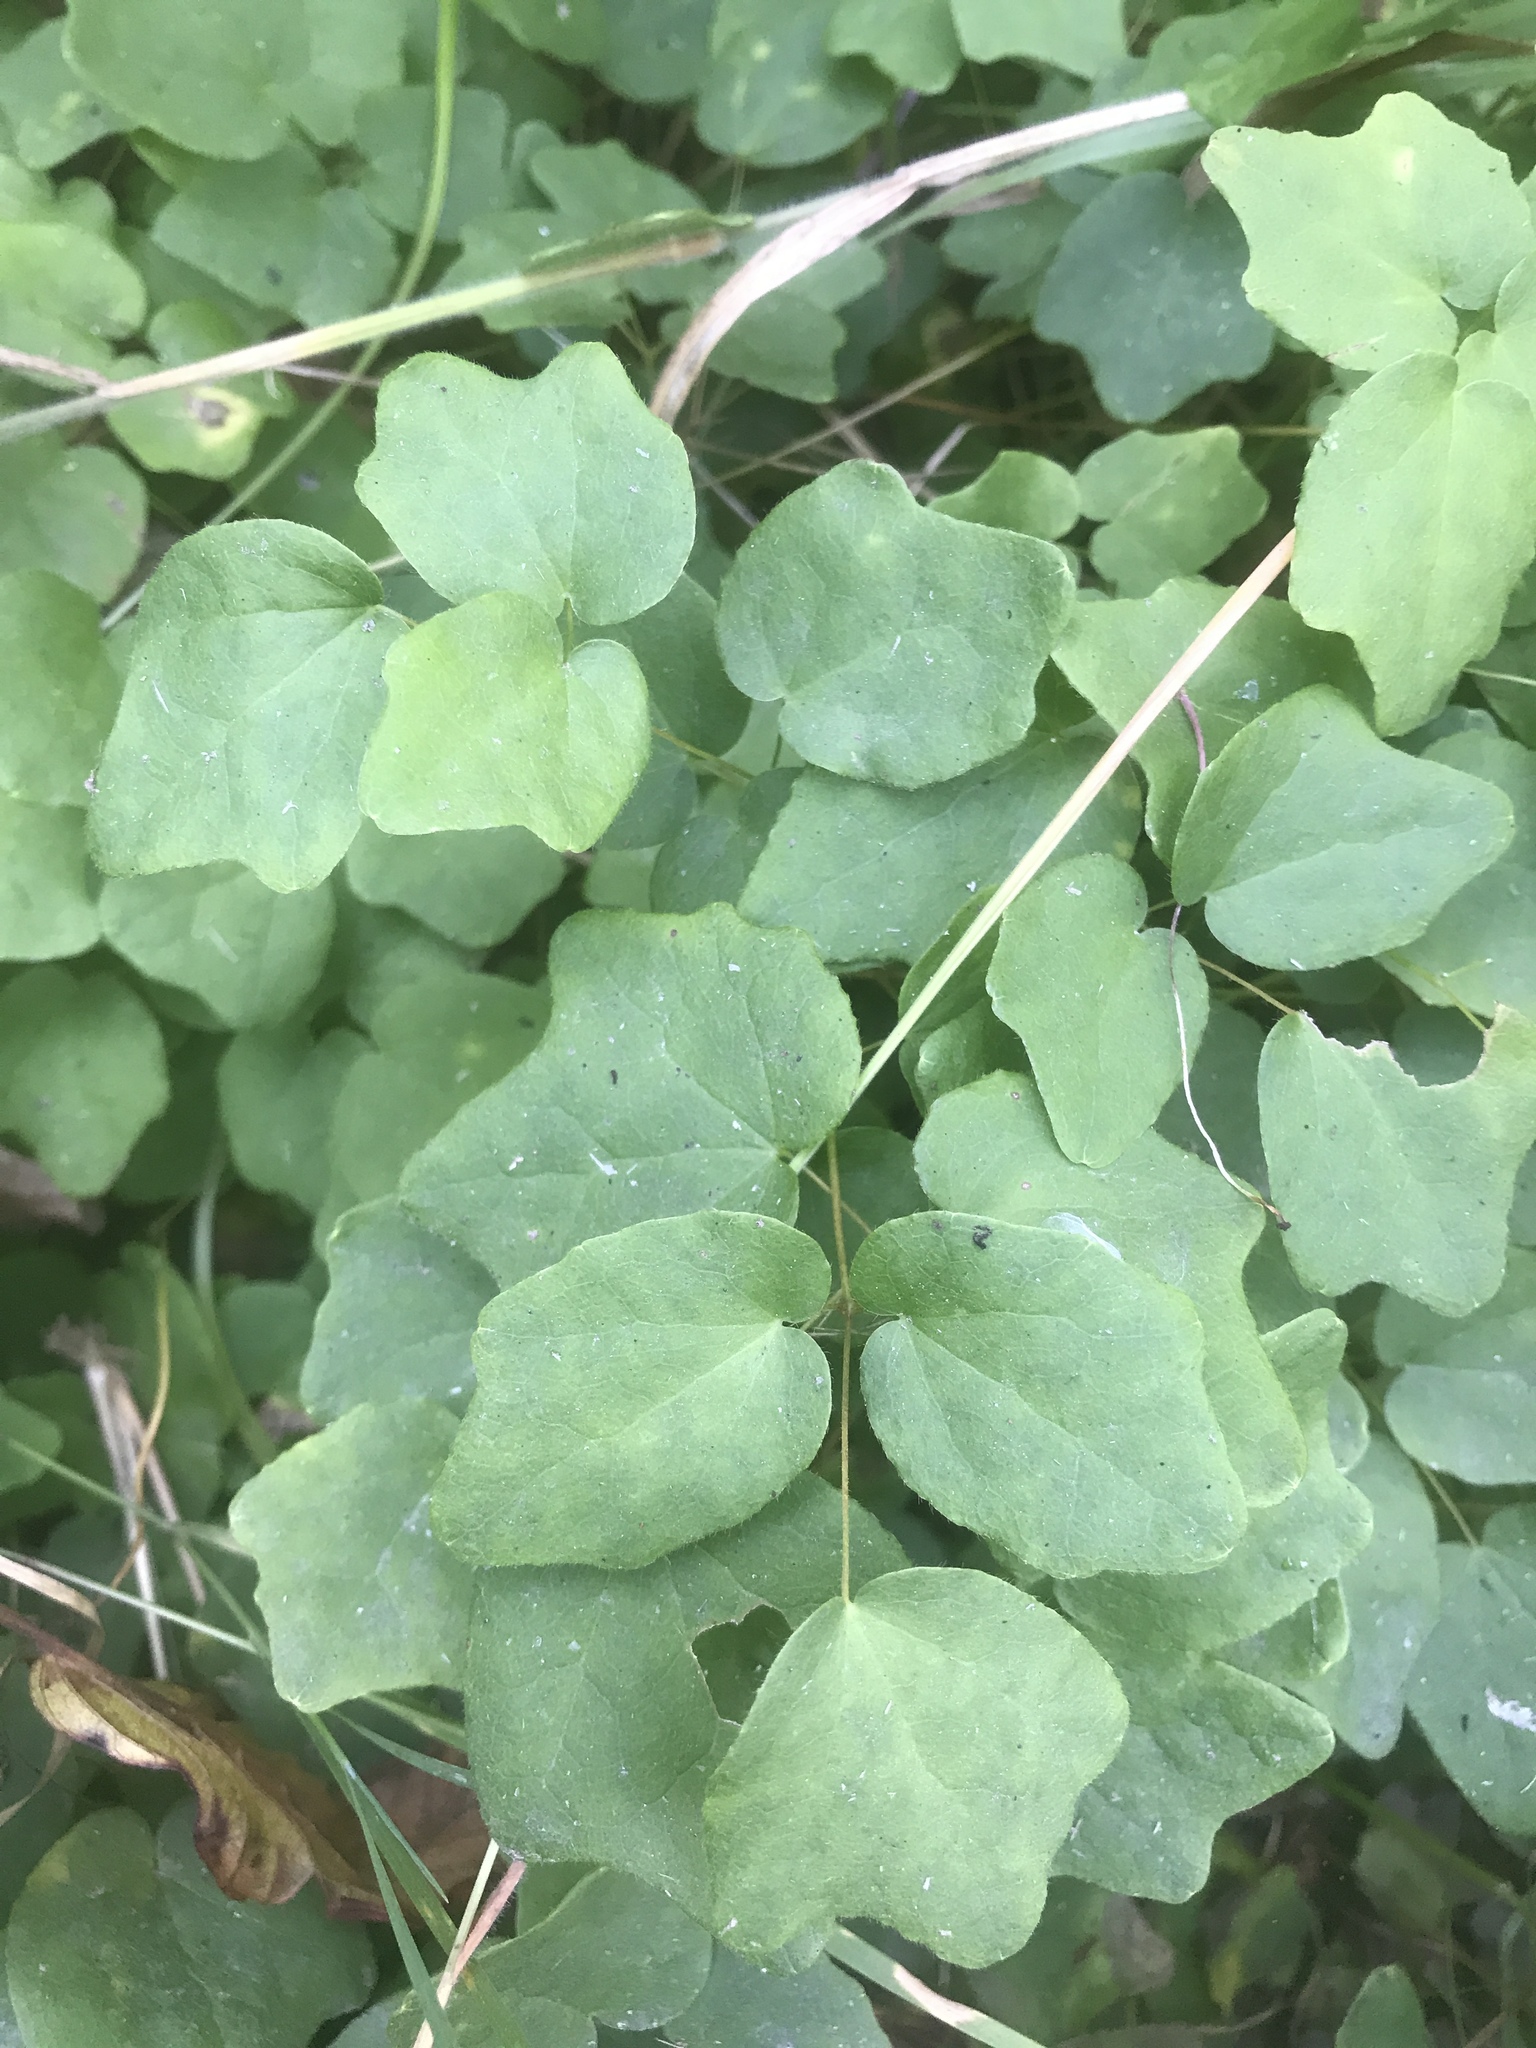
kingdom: Plantae
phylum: Tracheophyta
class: Magnoliopsida
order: Ranunculales
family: Berberidaceae
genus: Vancouveria
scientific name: Vancouveria hexandra
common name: Northern inside-out-flower
